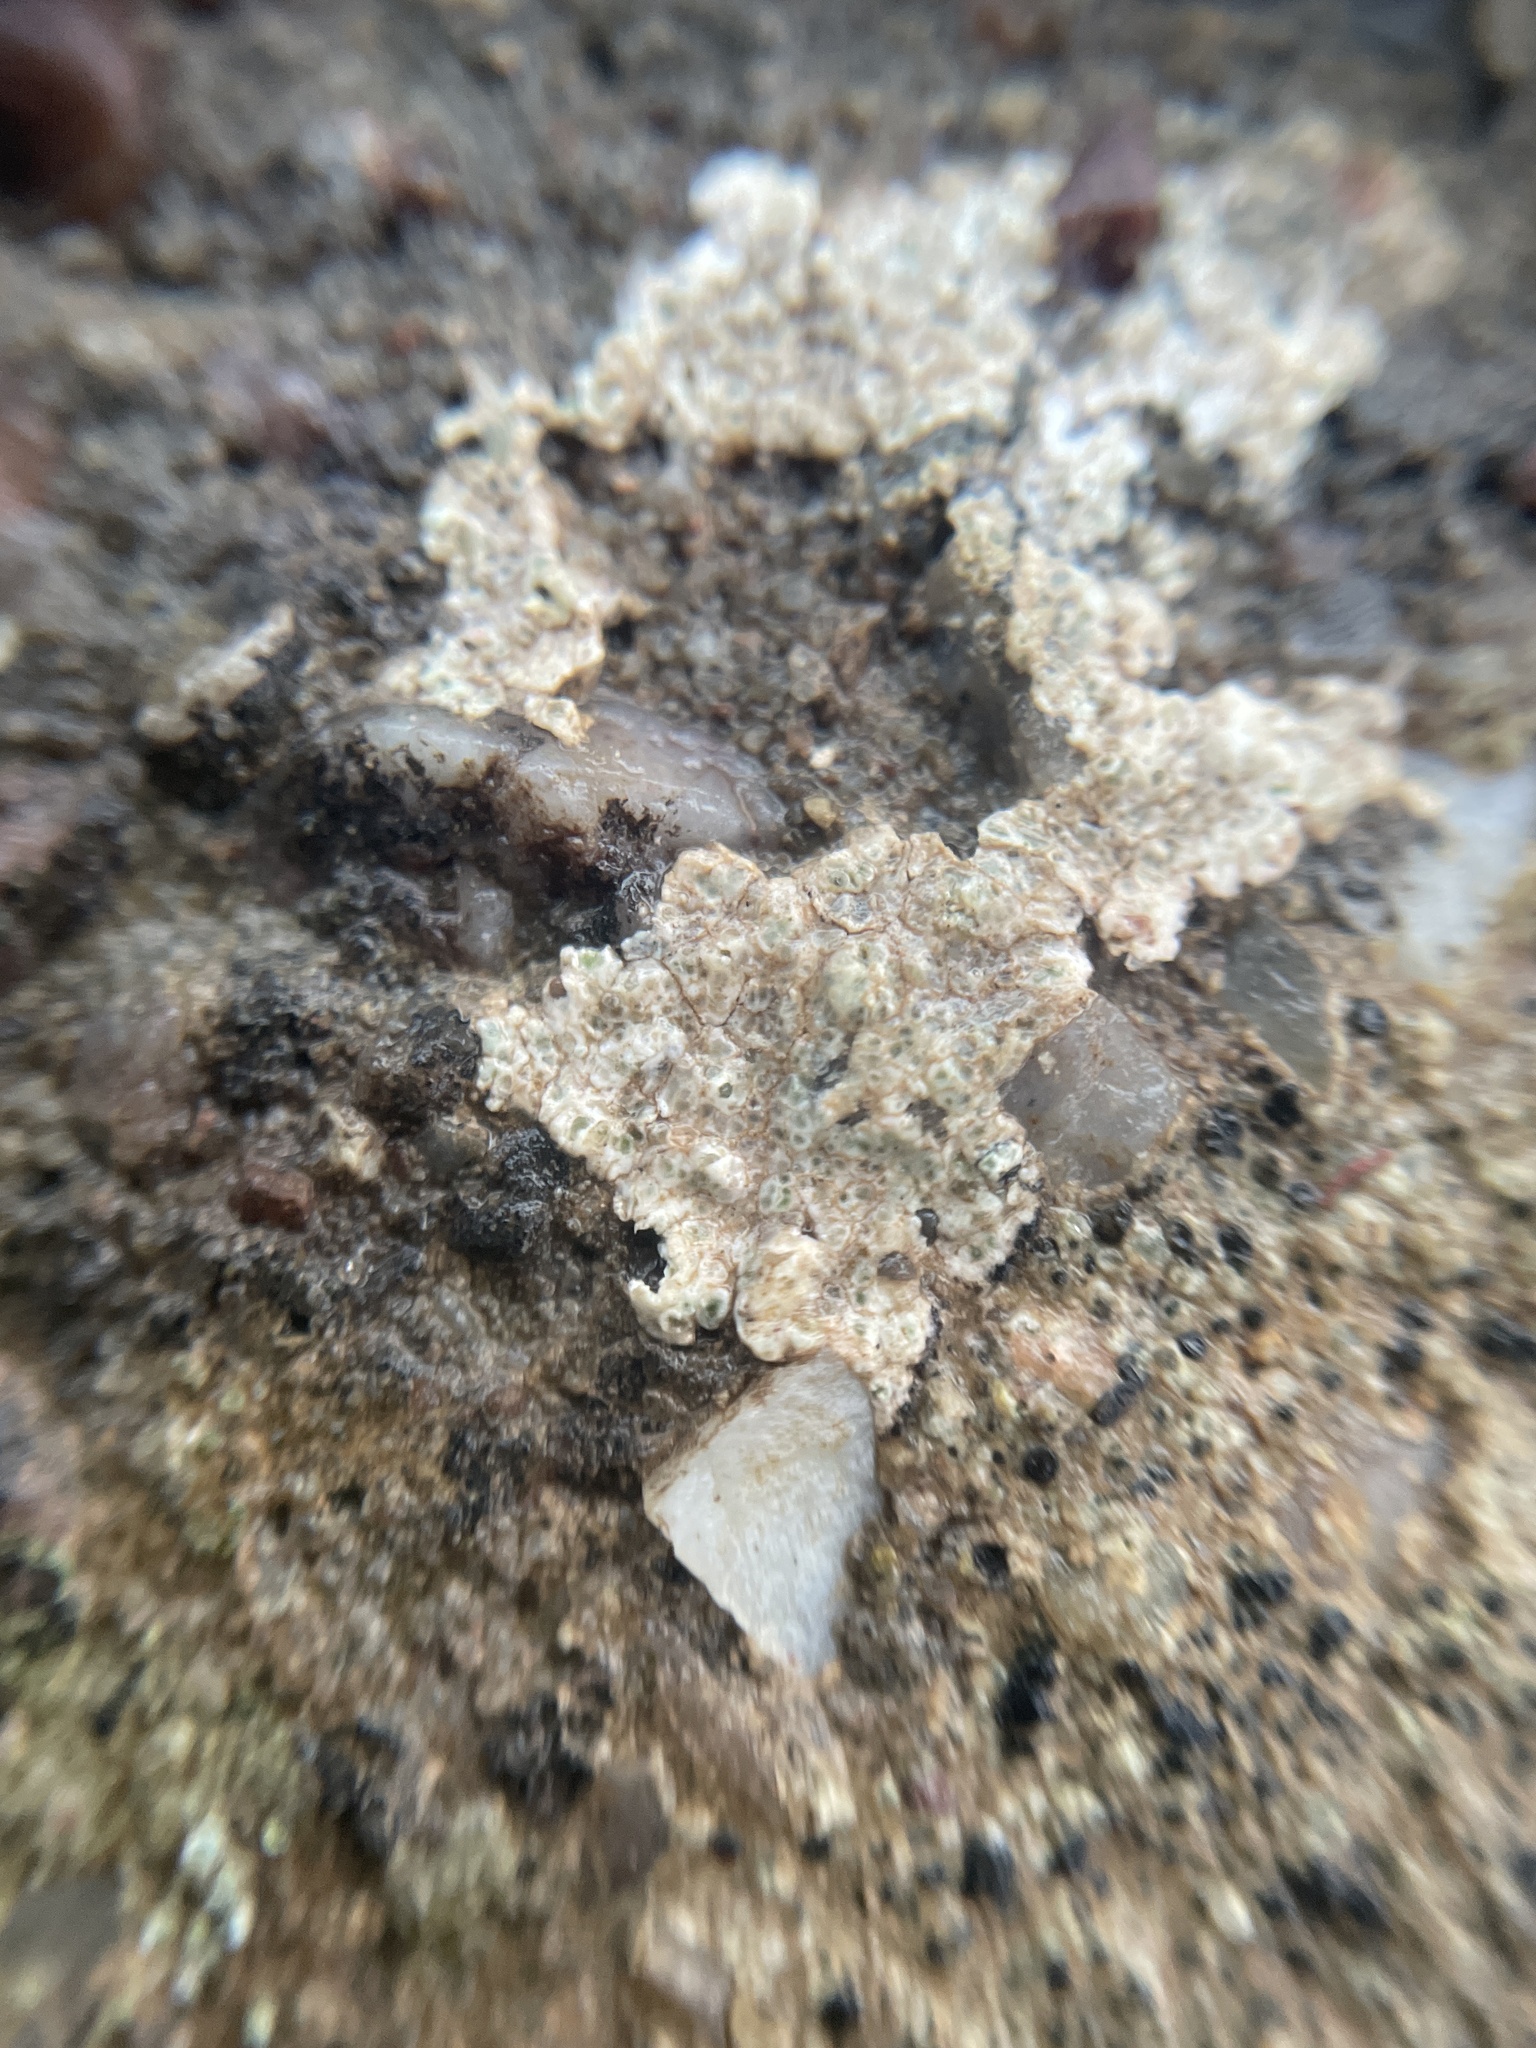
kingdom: Fungi
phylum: Ascomycota
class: Lecanoromycetes
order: Lecanorales
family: Lecanoraceae
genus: Polyozosia
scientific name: Polyozosia albescens
